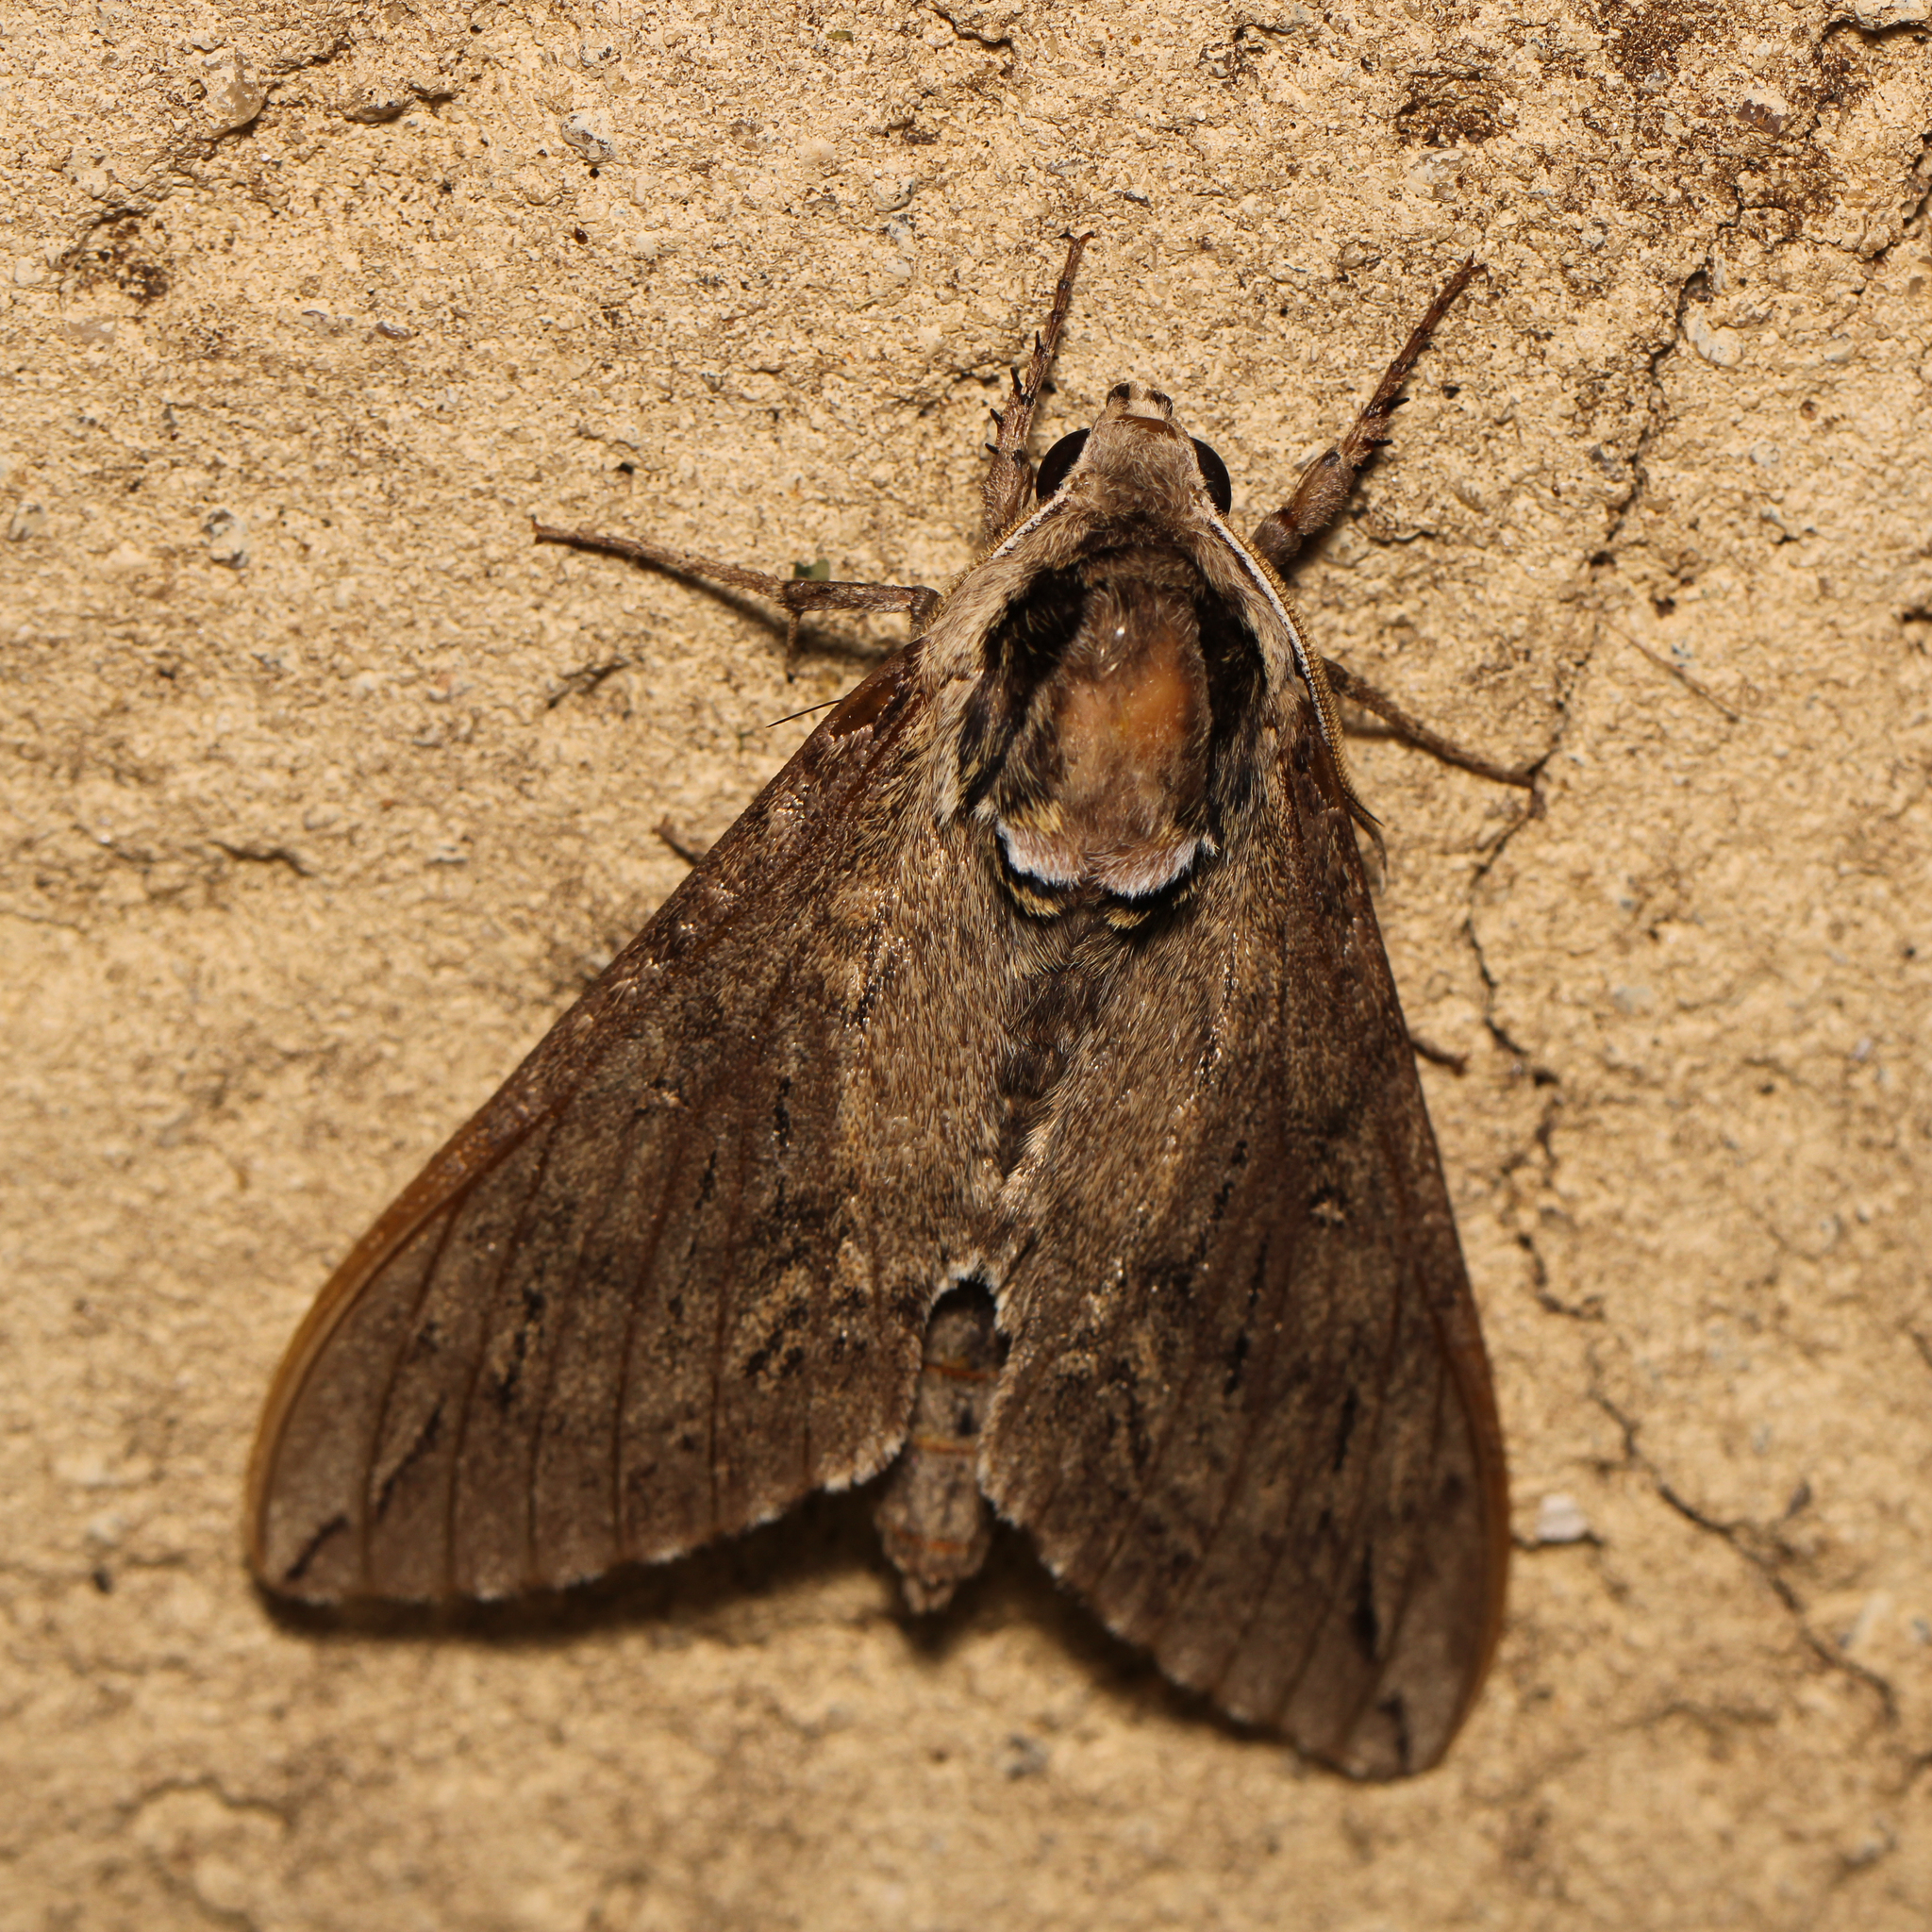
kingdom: Animalia
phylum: Arthropoda
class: Insecta
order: Lepidoptera
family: Sphingidae
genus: Ceratomia
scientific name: Ceratomia catalpae
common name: Catalpa hornworm
